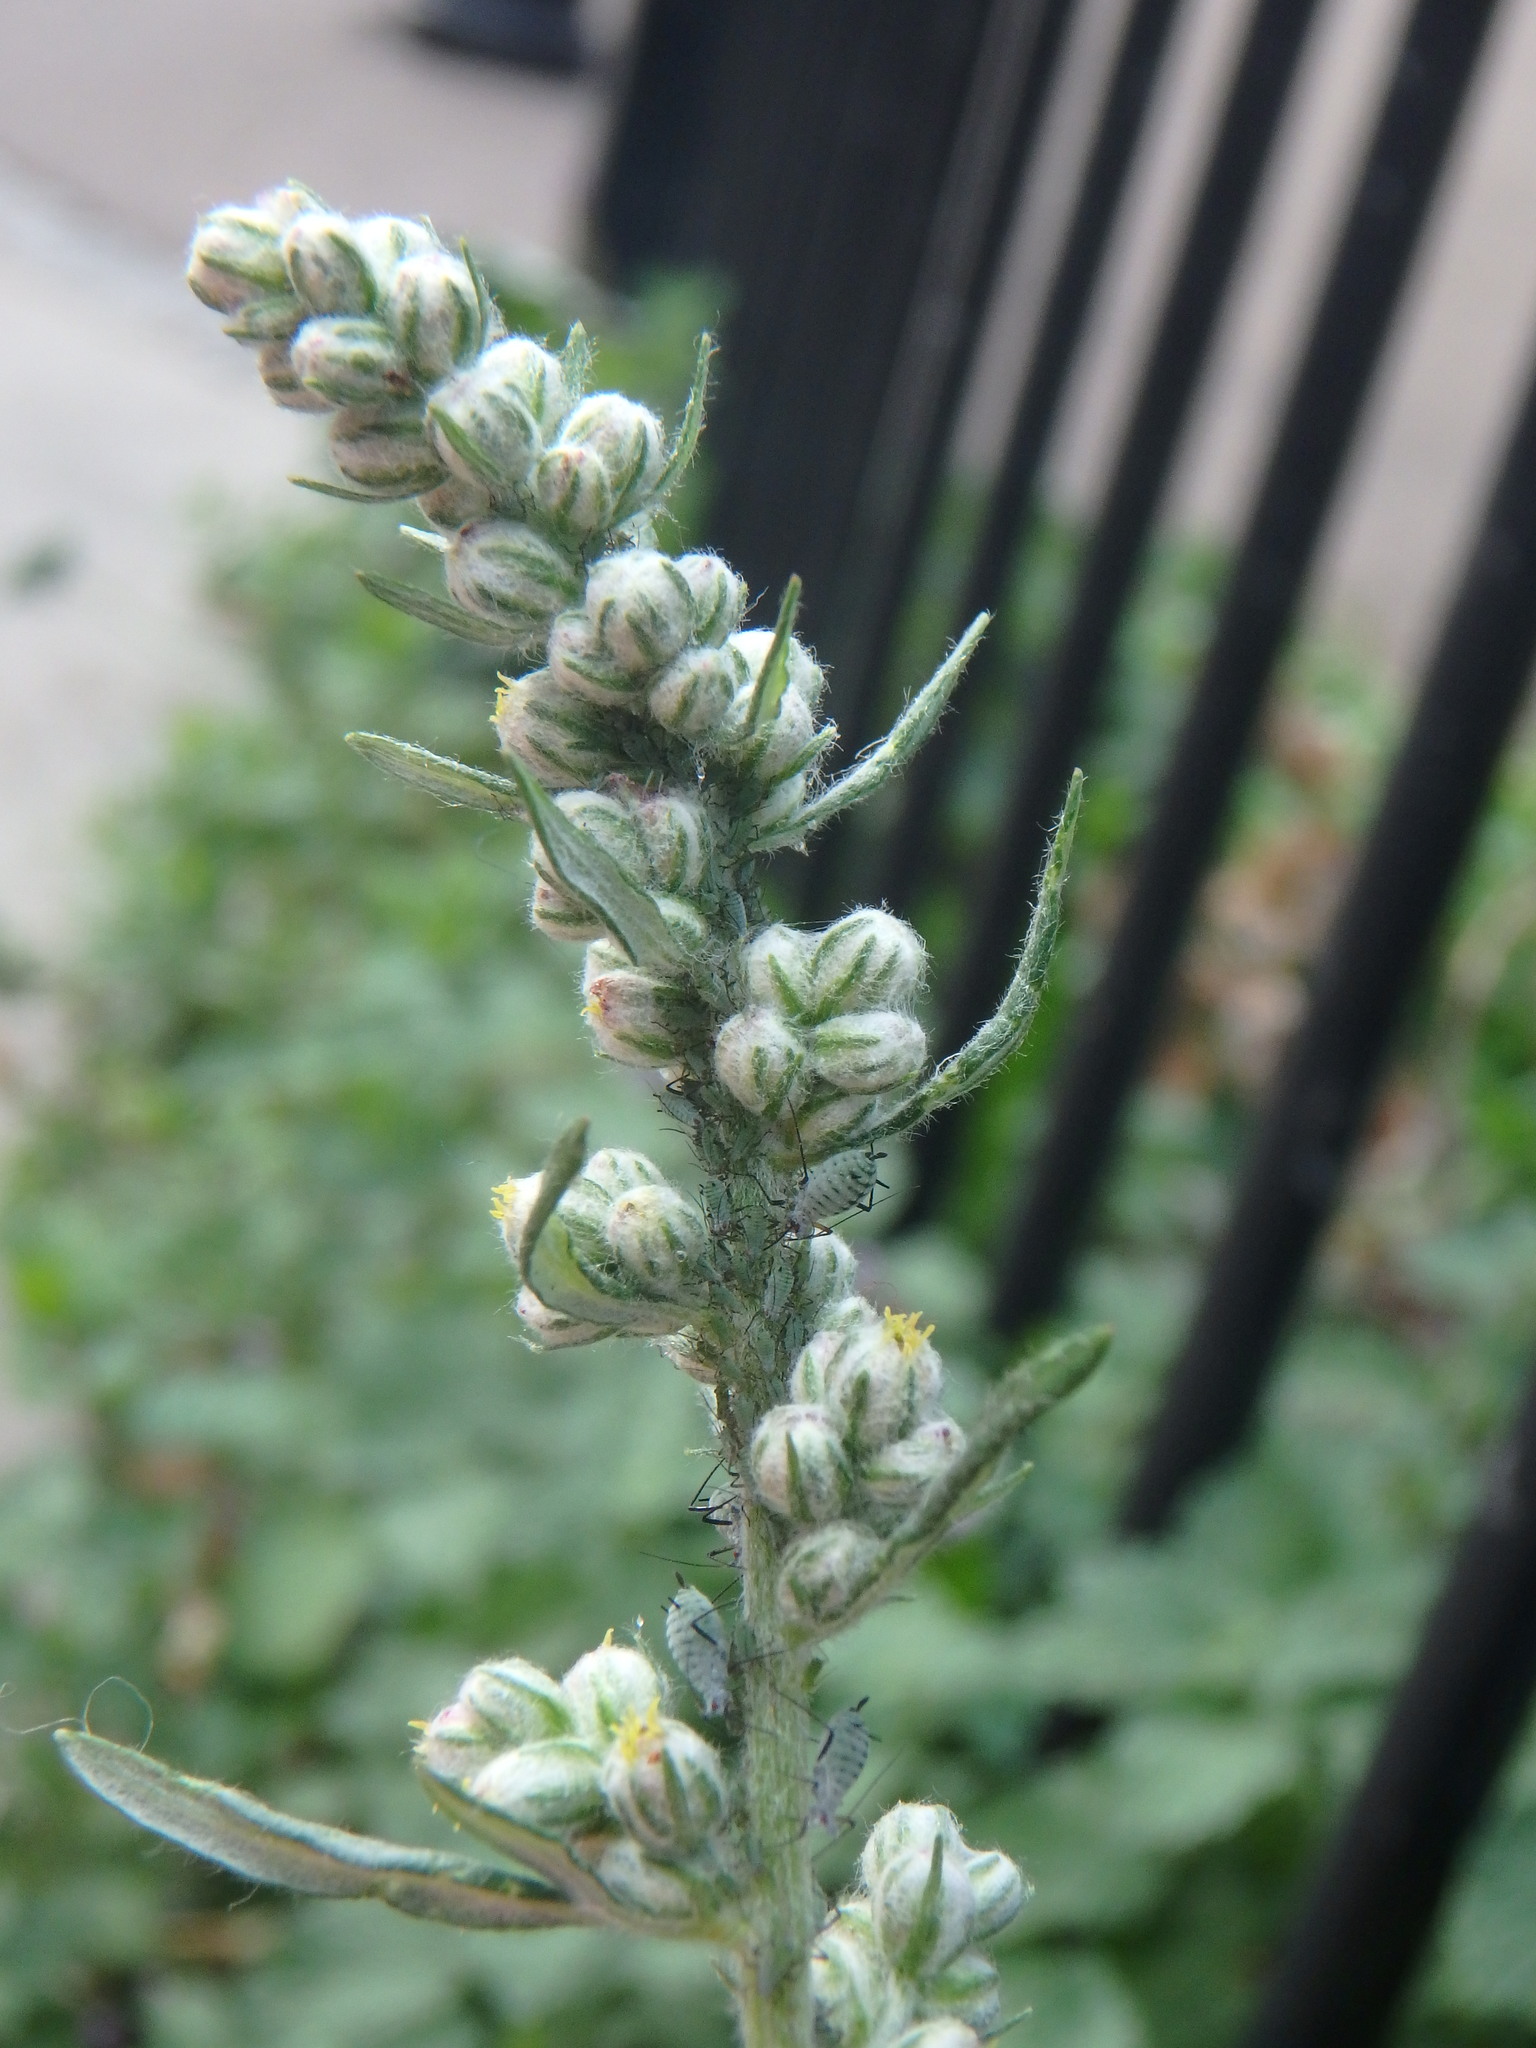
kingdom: Plantae
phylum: Tracheophyta
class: Magnoliopsida
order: Asterales
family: Asteraceae
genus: Artemisia
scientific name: Artemisia vulgaris
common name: Mugwort
